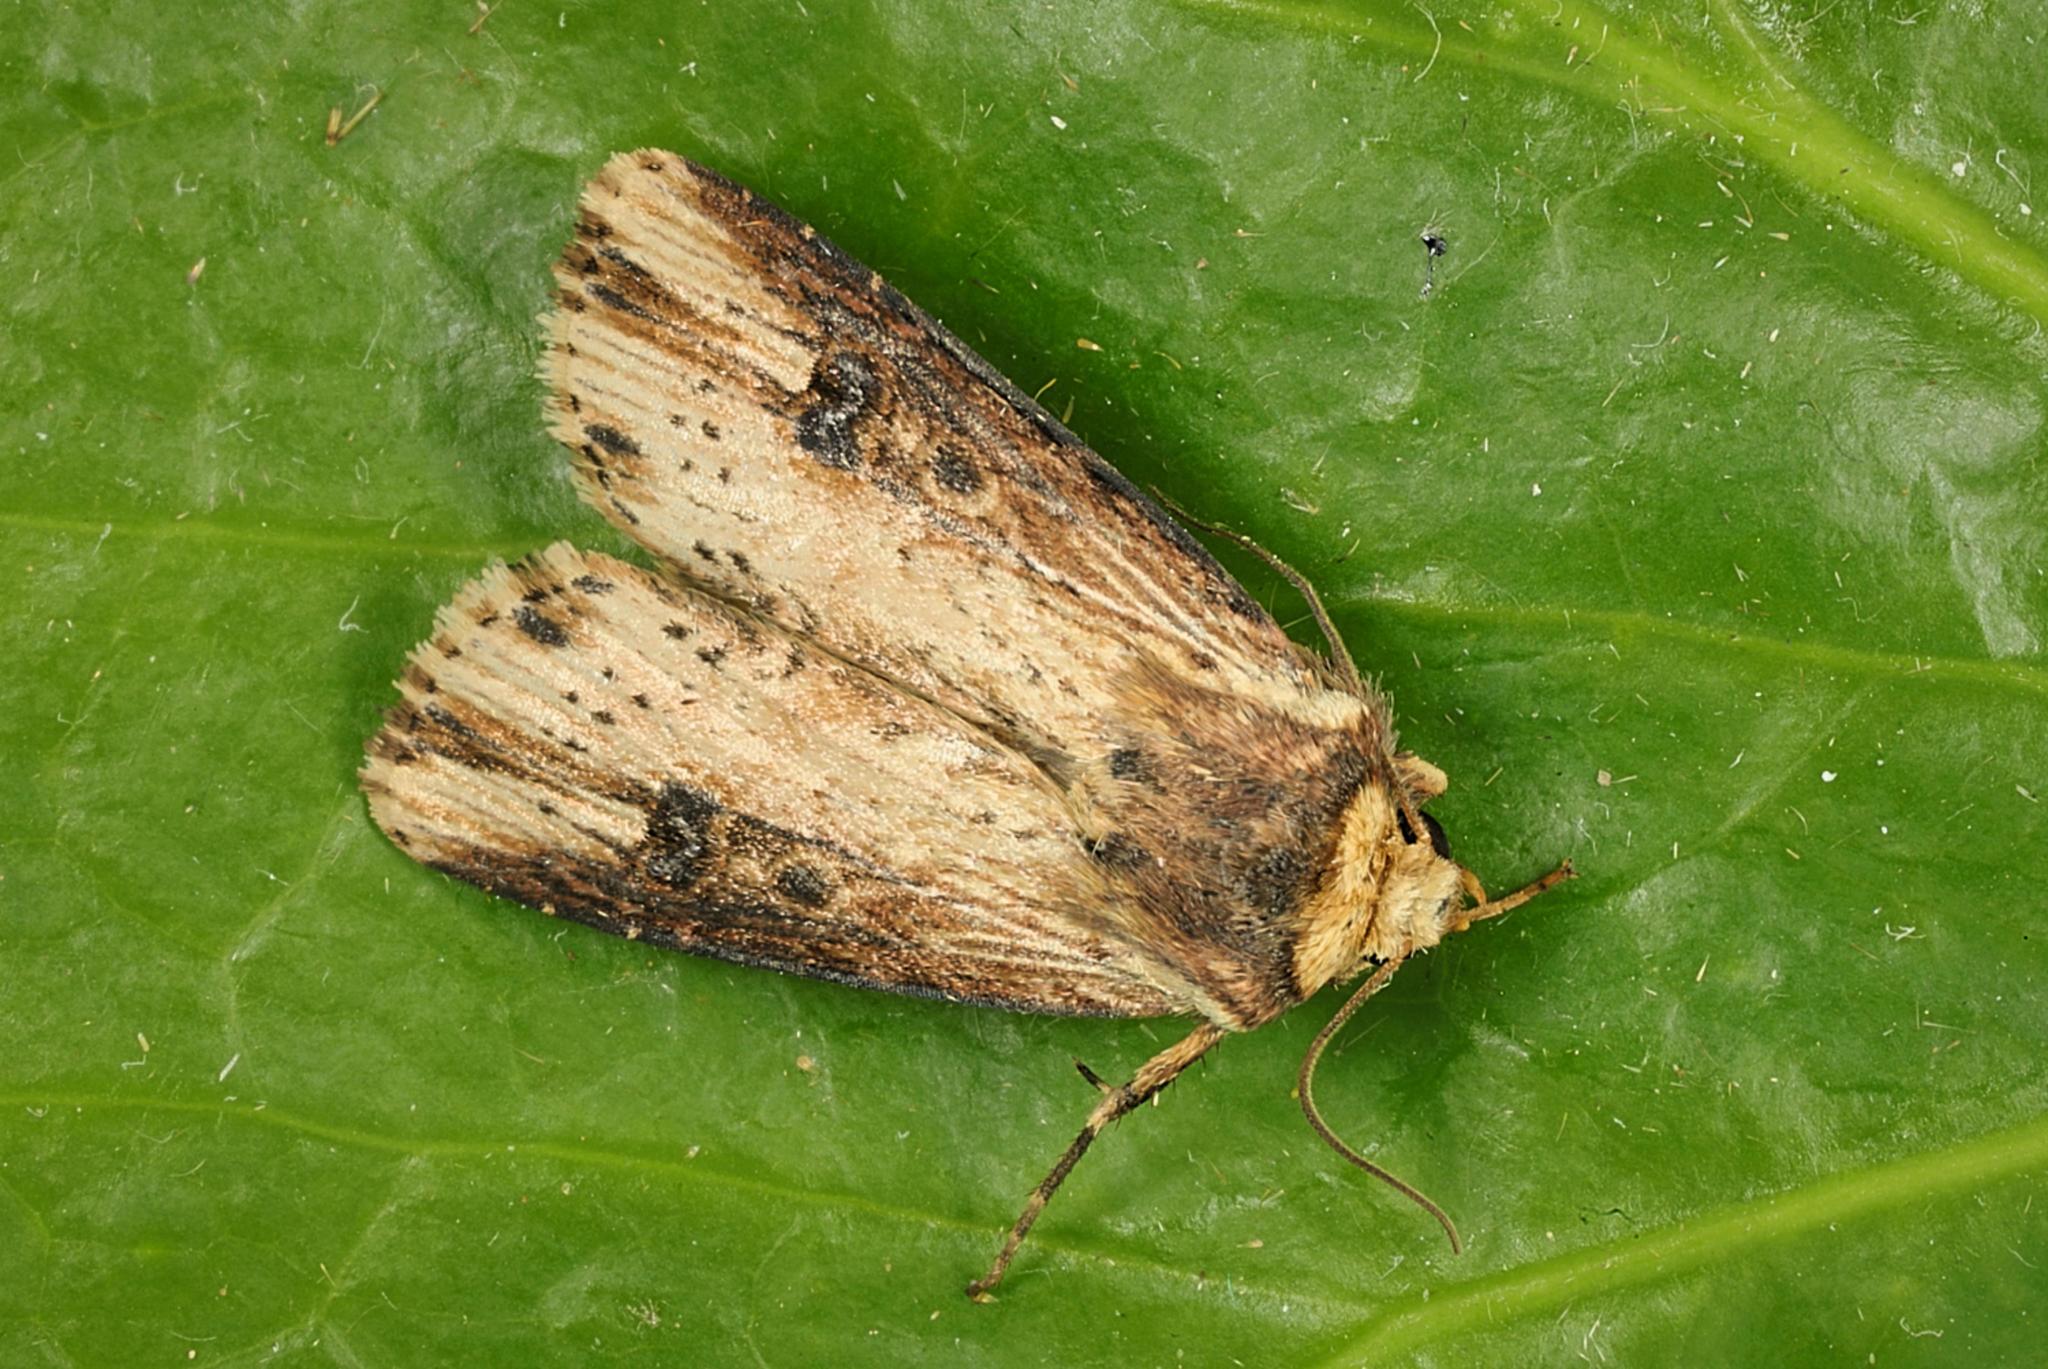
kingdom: Animalia
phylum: Arthropoda
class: Insecta
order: Lepidoptera
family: Noctuidae
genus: Axylia
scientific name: Axylia putris
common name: Flame
